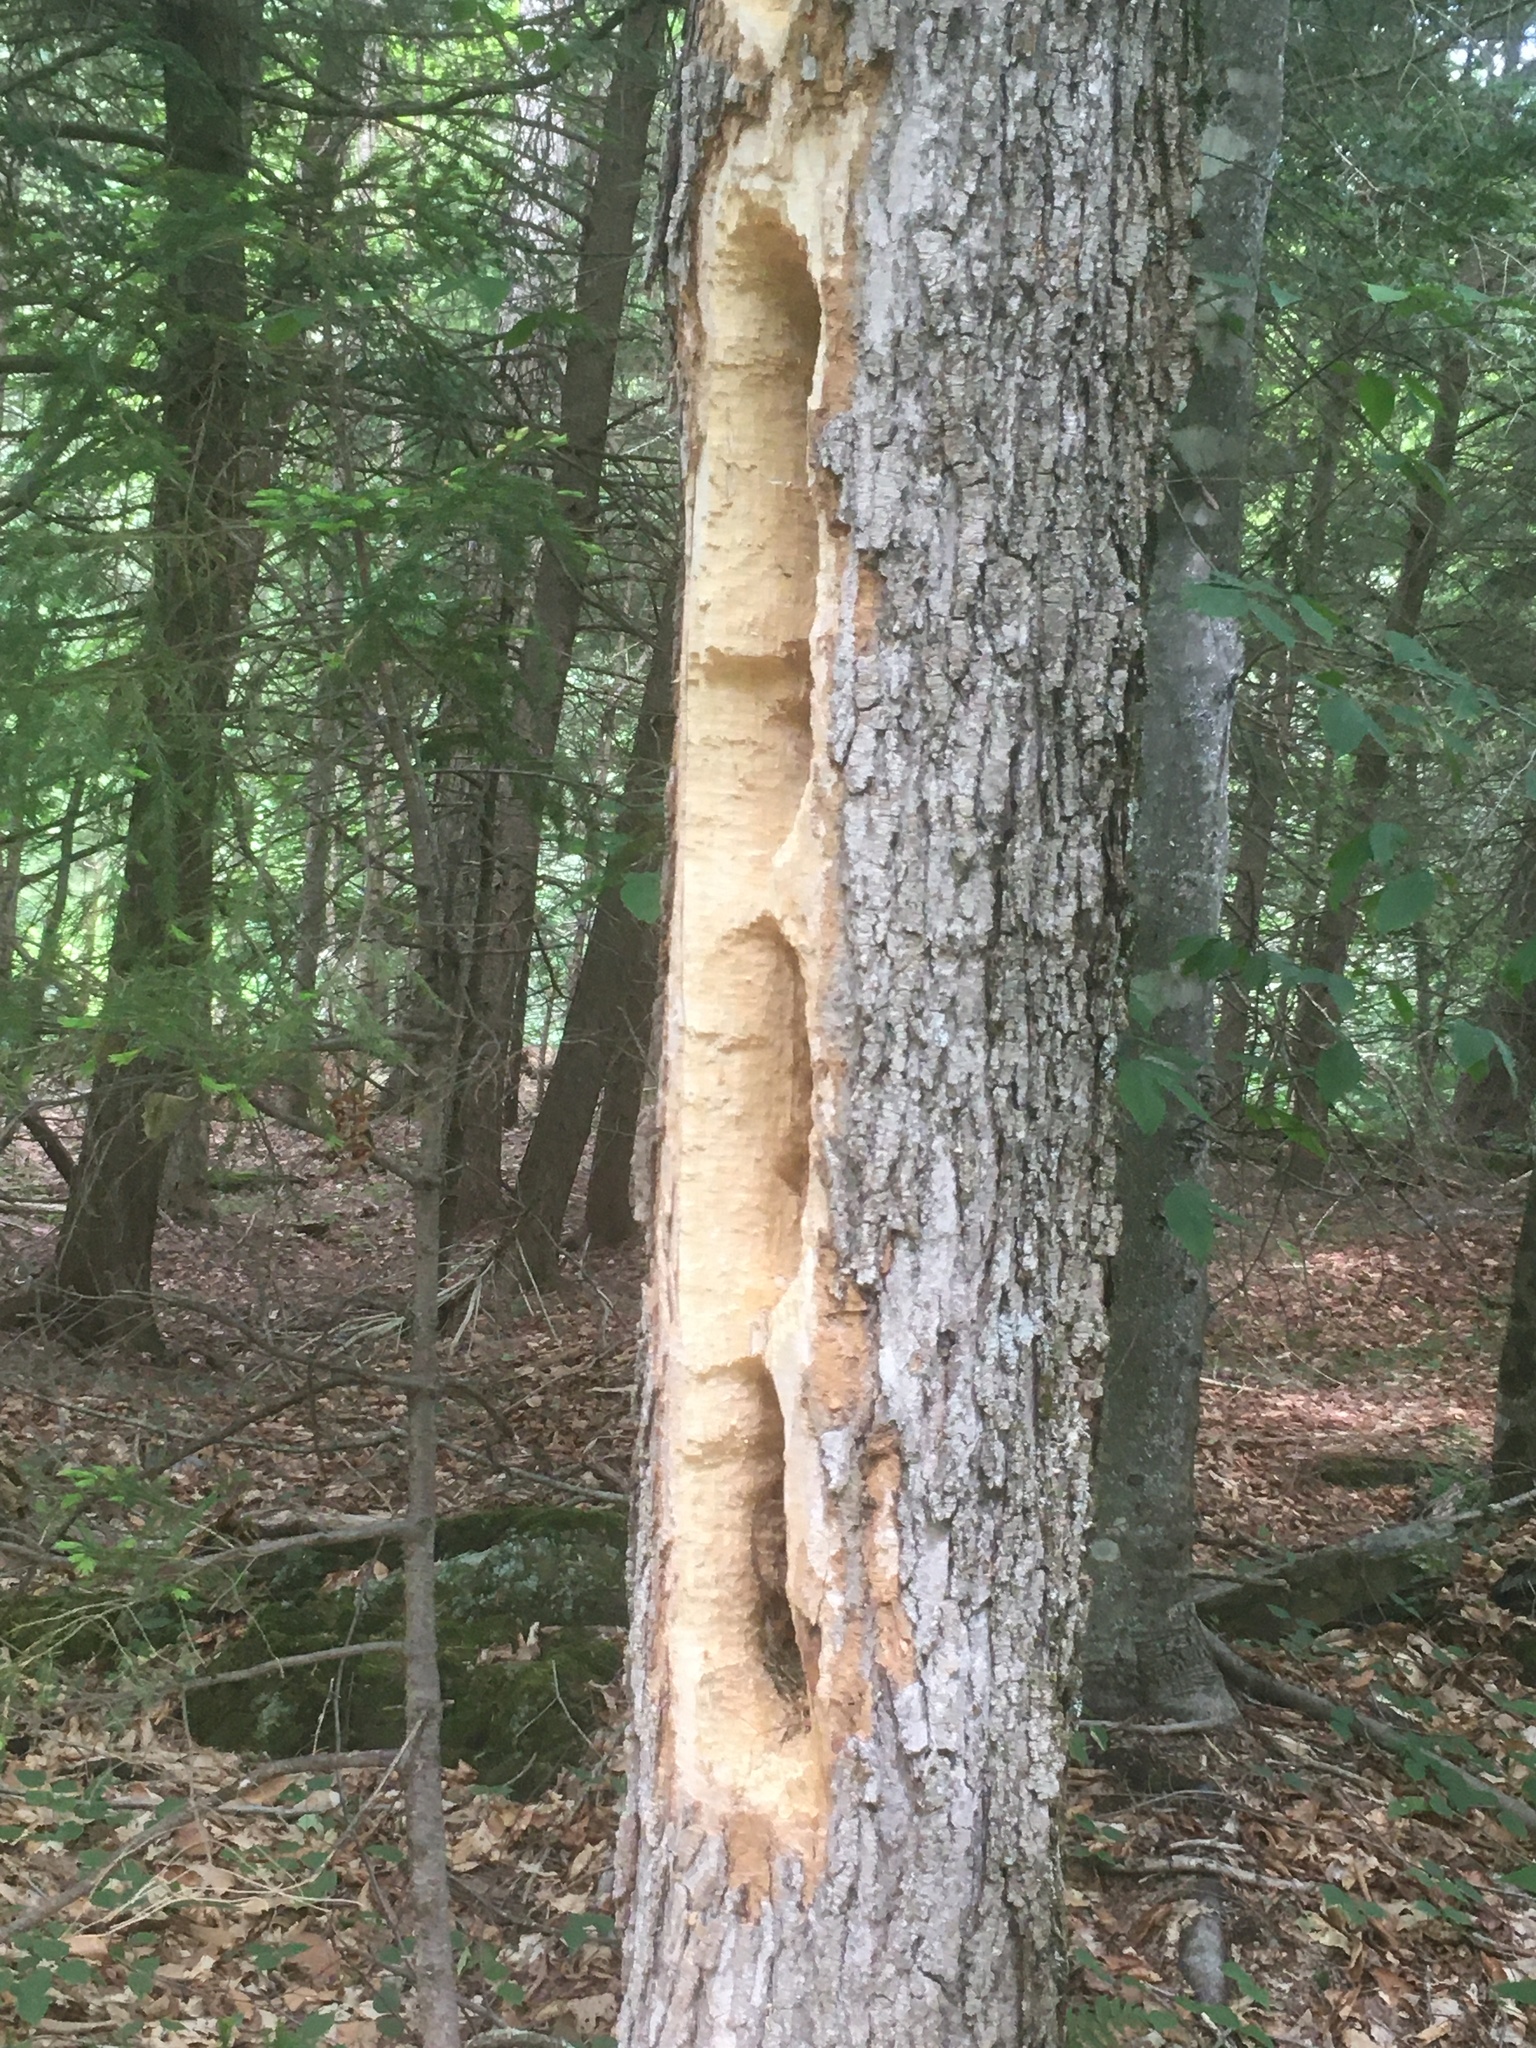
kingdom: Animalia
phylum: Chordata
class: Aves
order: Piciformes
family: Picidae
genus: Dryocopus
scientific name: Dryocopus pileatus
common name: Pileated woodpecker
